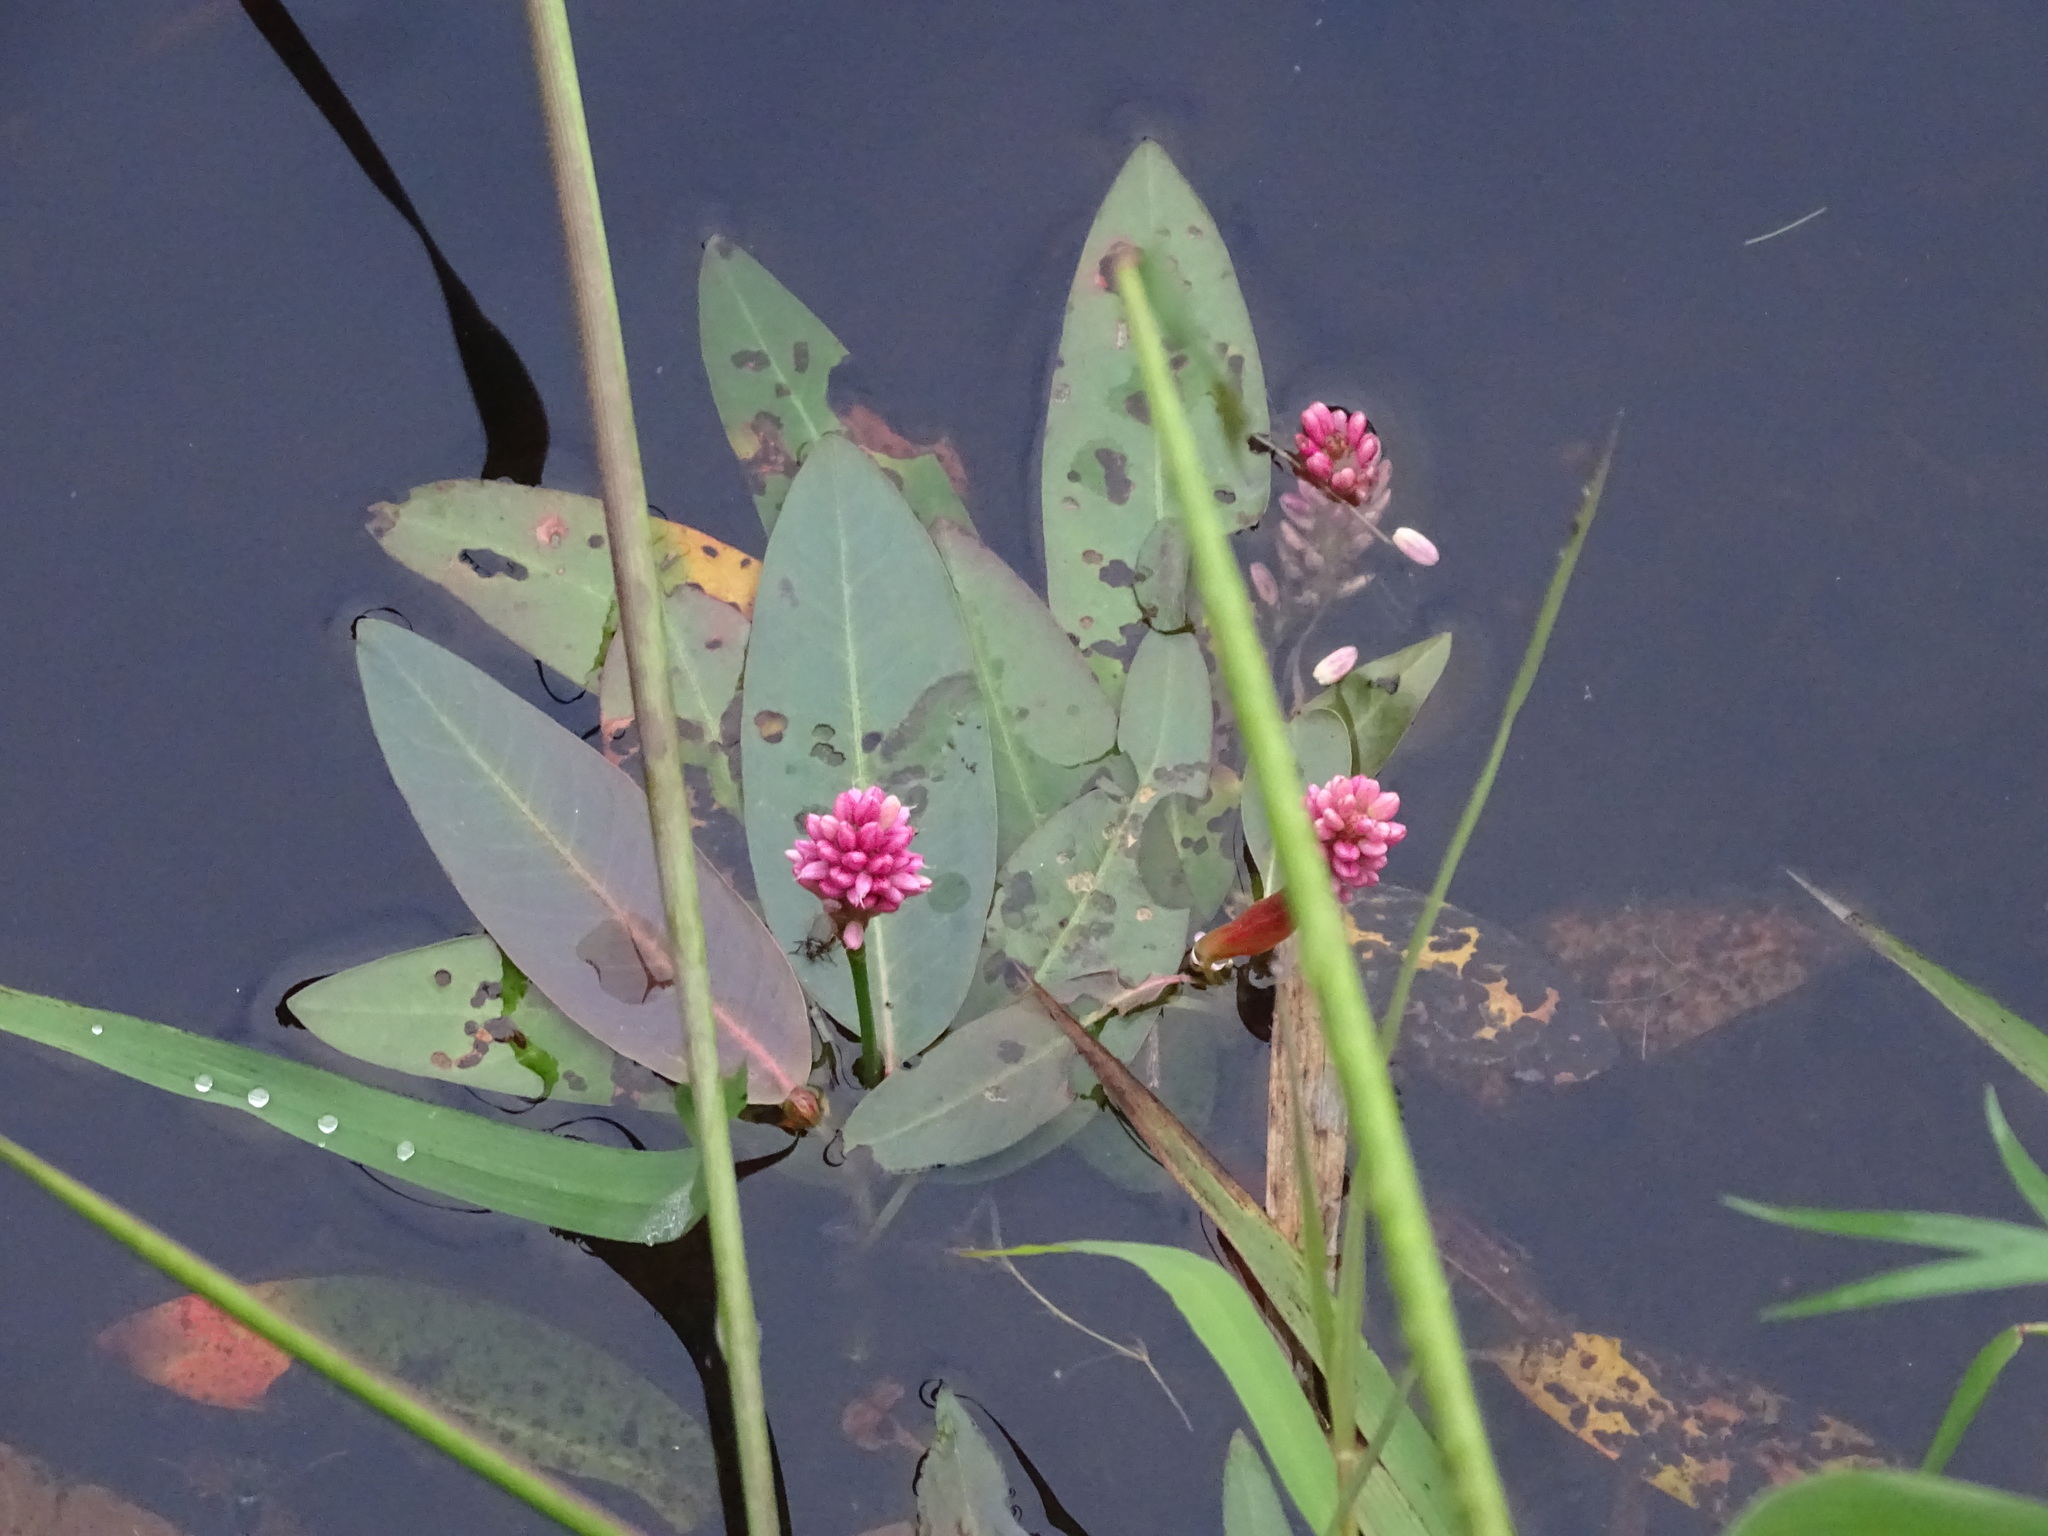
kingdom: Plantae
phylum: Tracheophyta
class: Magnoliopsida
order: Caryophyllales
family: Polygonaceae
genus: Persicaria
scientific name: Persicaria amphibia
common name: Amphibious bistort
